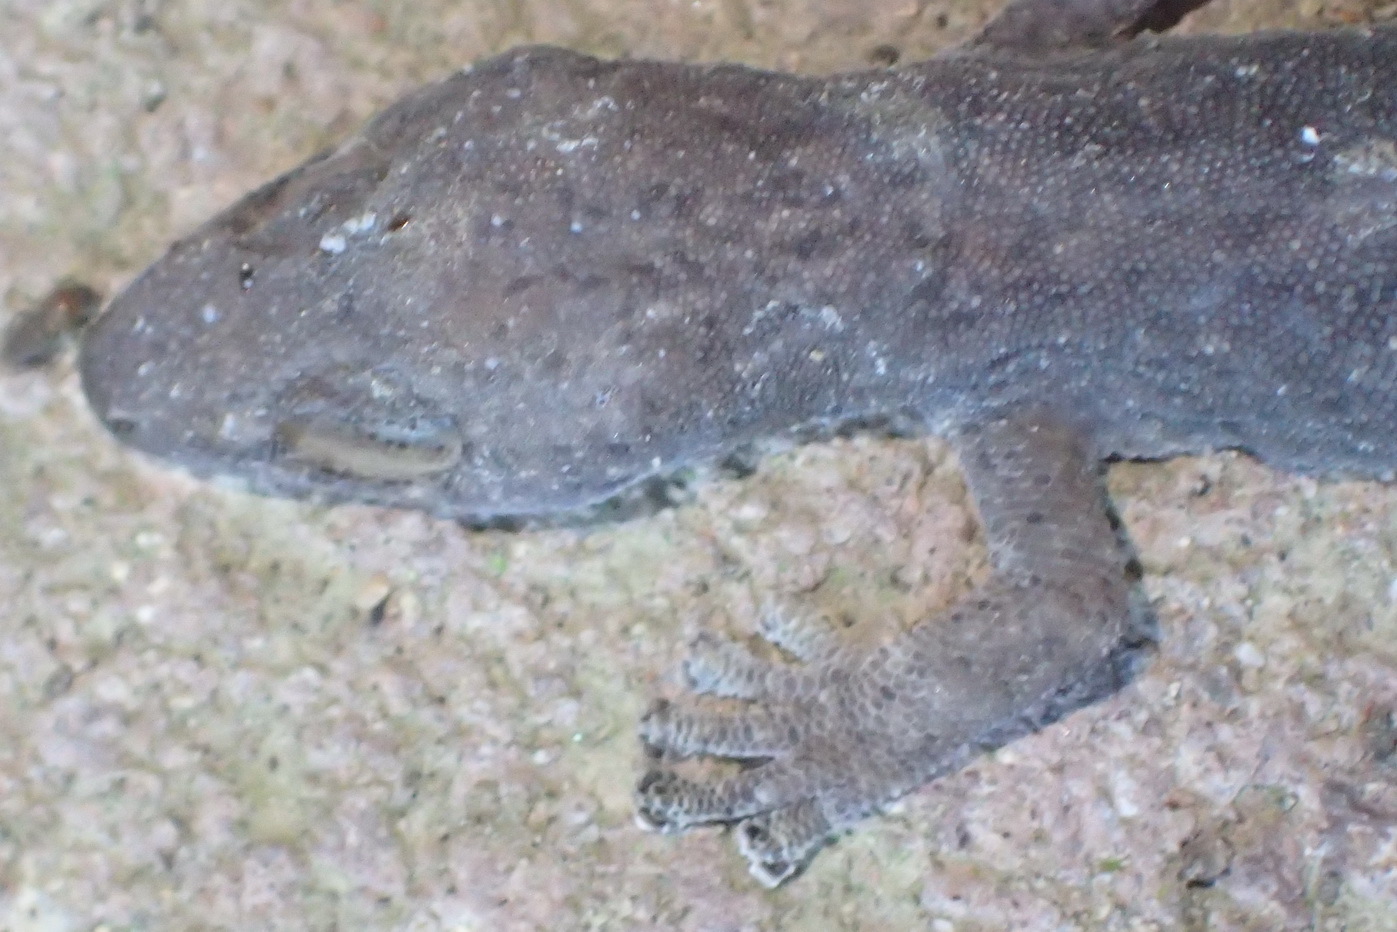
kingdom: Animalia
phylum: Chordata
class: Squamata
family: Gekkonidae
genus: Afrogecko
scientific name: Afrogecko porphyreus
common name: Marbled leaf-toed gecko
